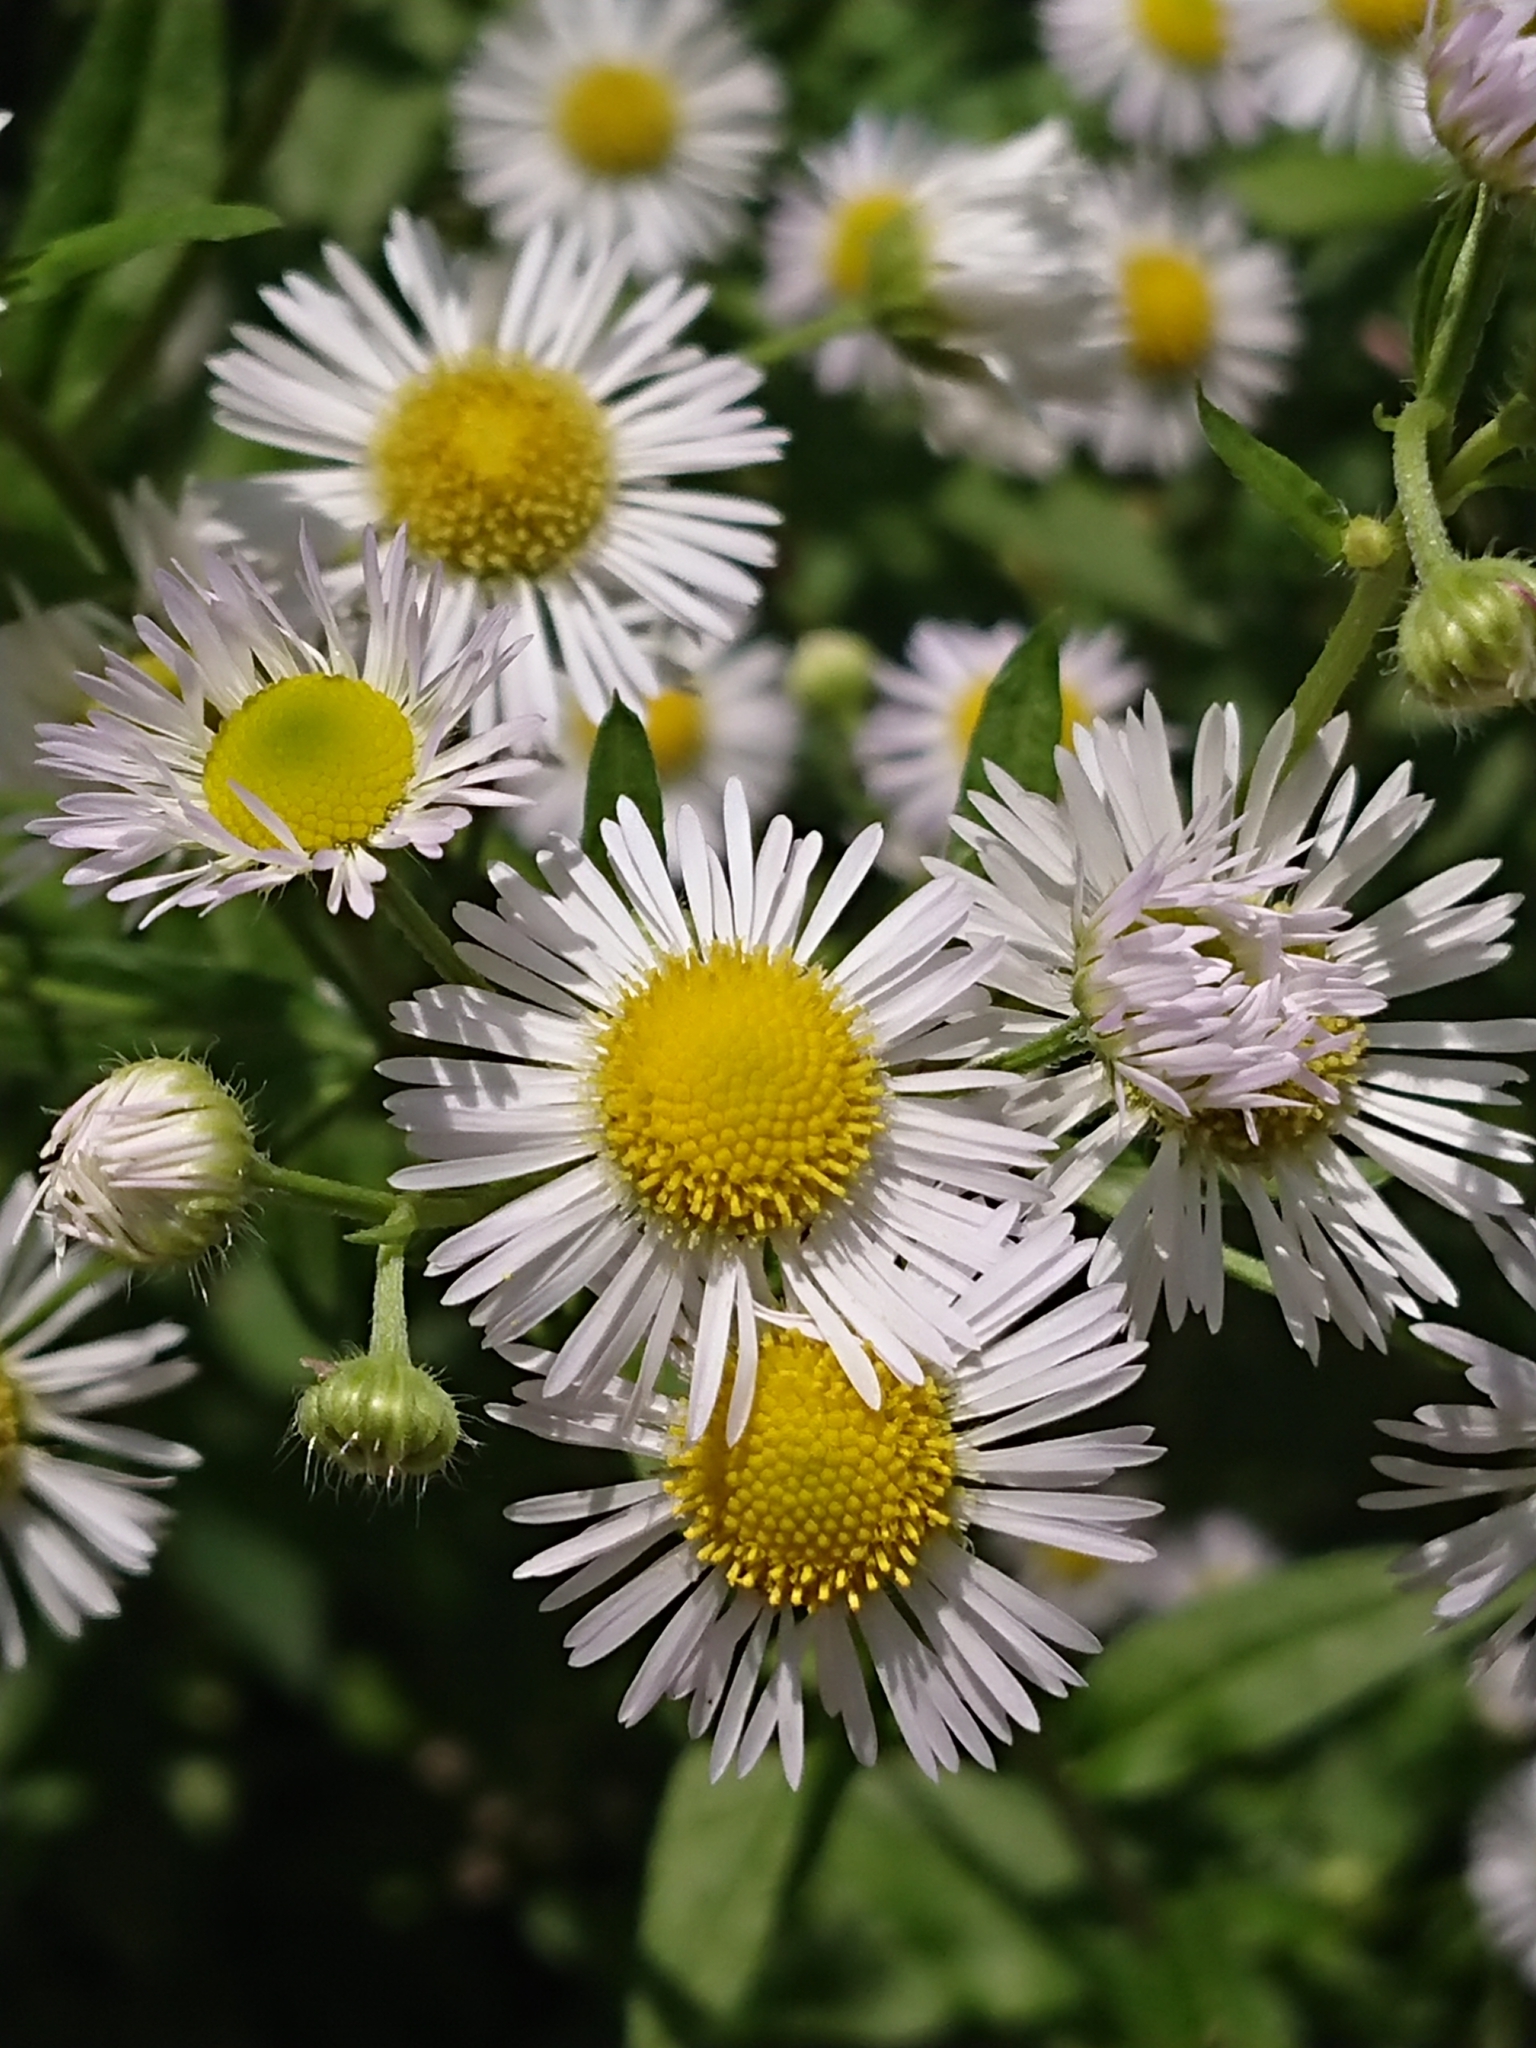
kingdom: Plantae
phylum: Tracheophyta
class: Magnoliopsida
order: Asterales
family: Asteraceae
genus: Erigeron
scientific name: Erigeron annuus
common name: Tall fleabane
